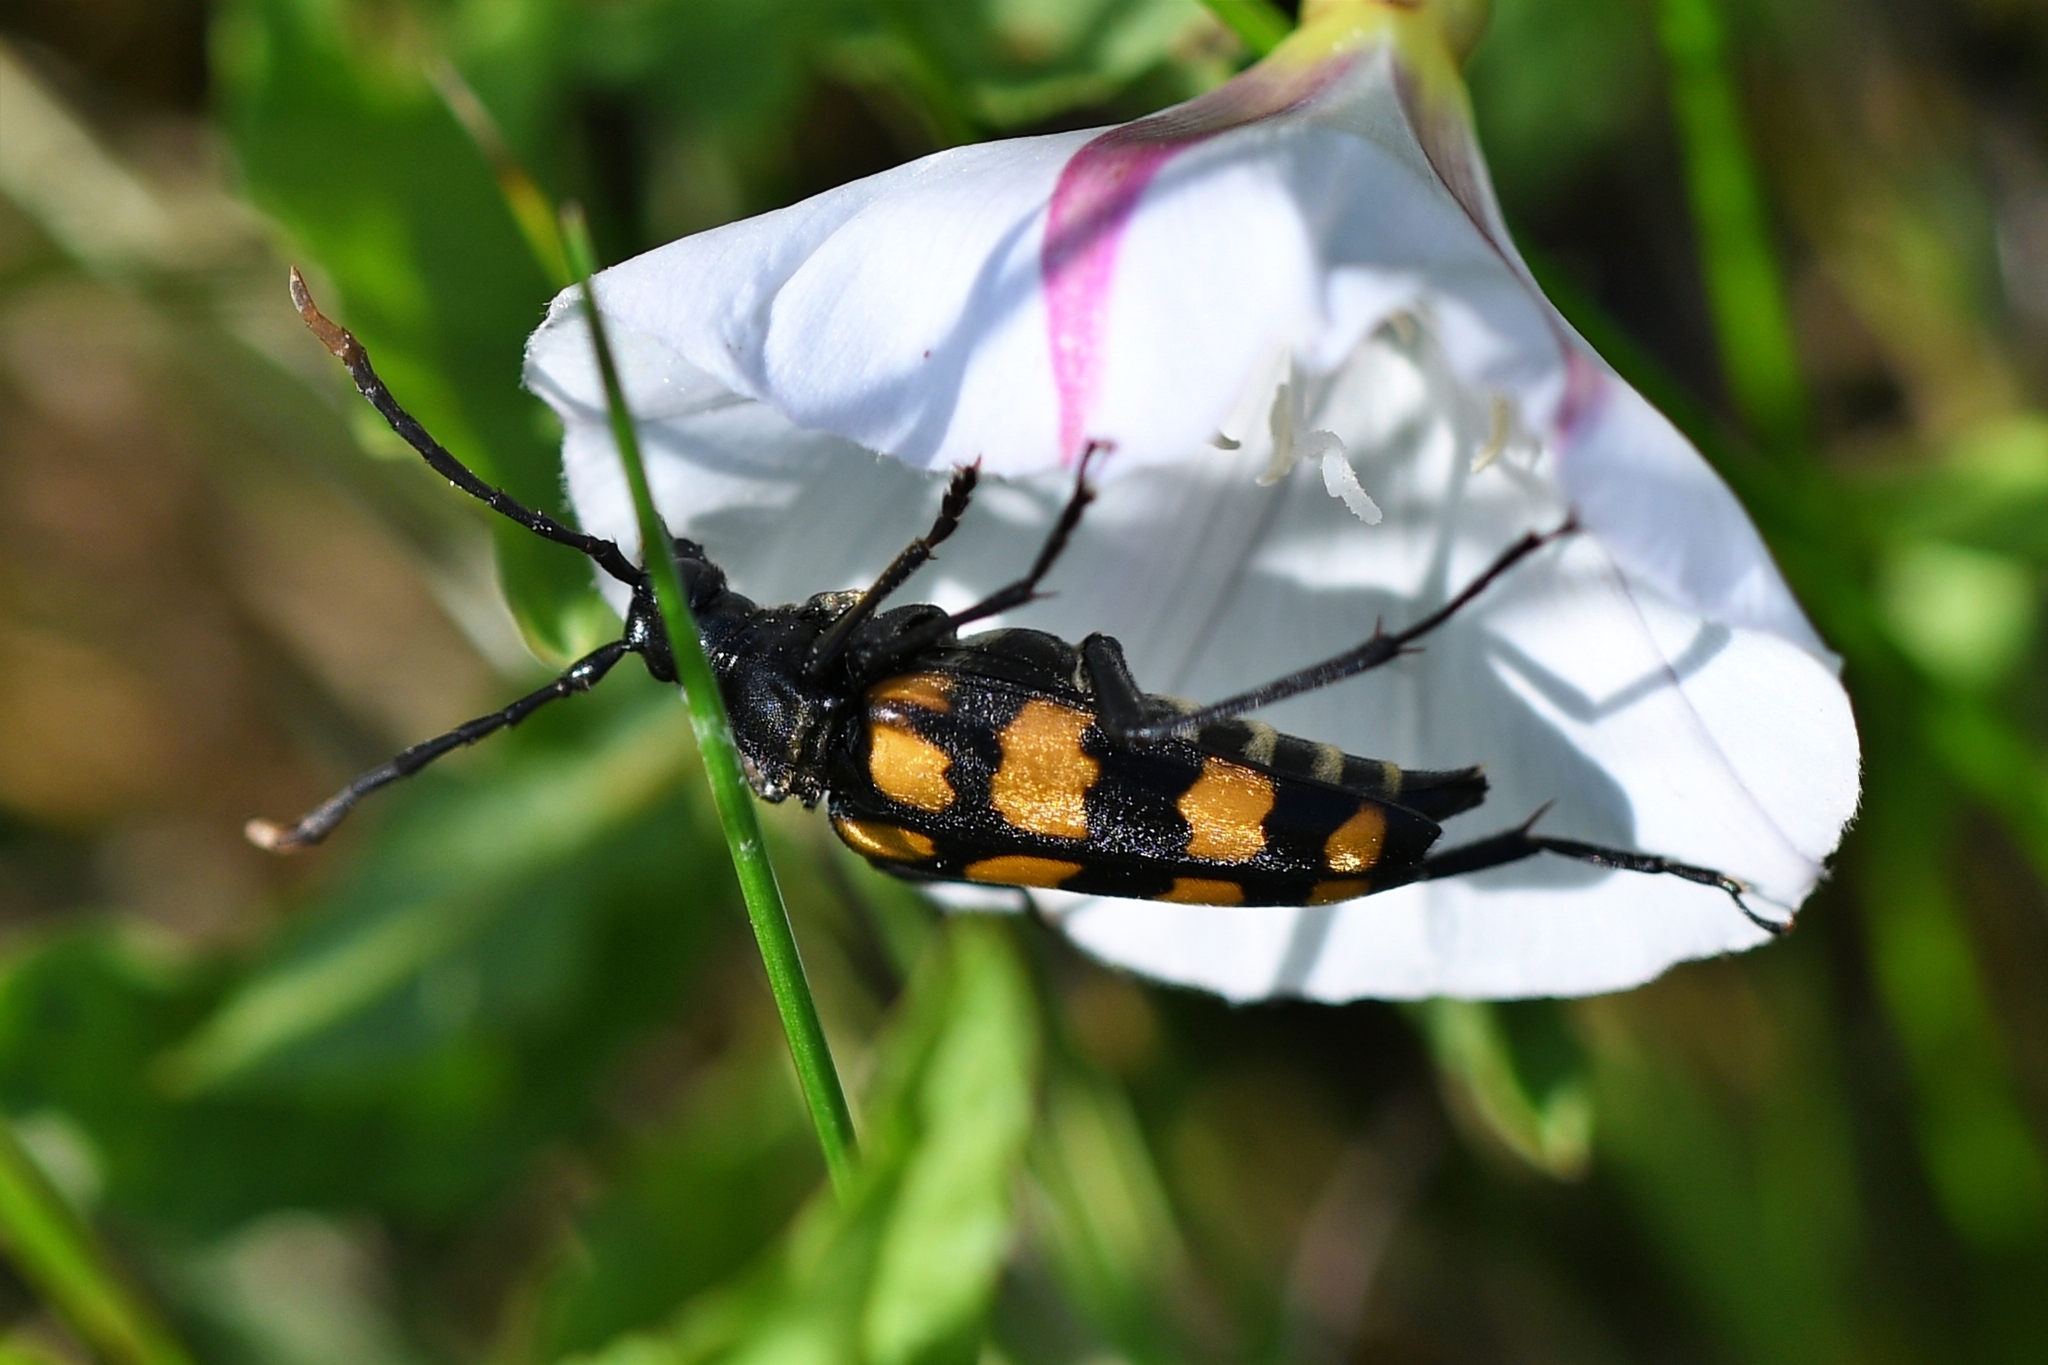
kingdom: Animalia
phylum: Arthropoda
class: Insecta
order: Coleoptera
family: Cerambycidae
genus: Leptura
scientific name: Leptura quadrifasciata
